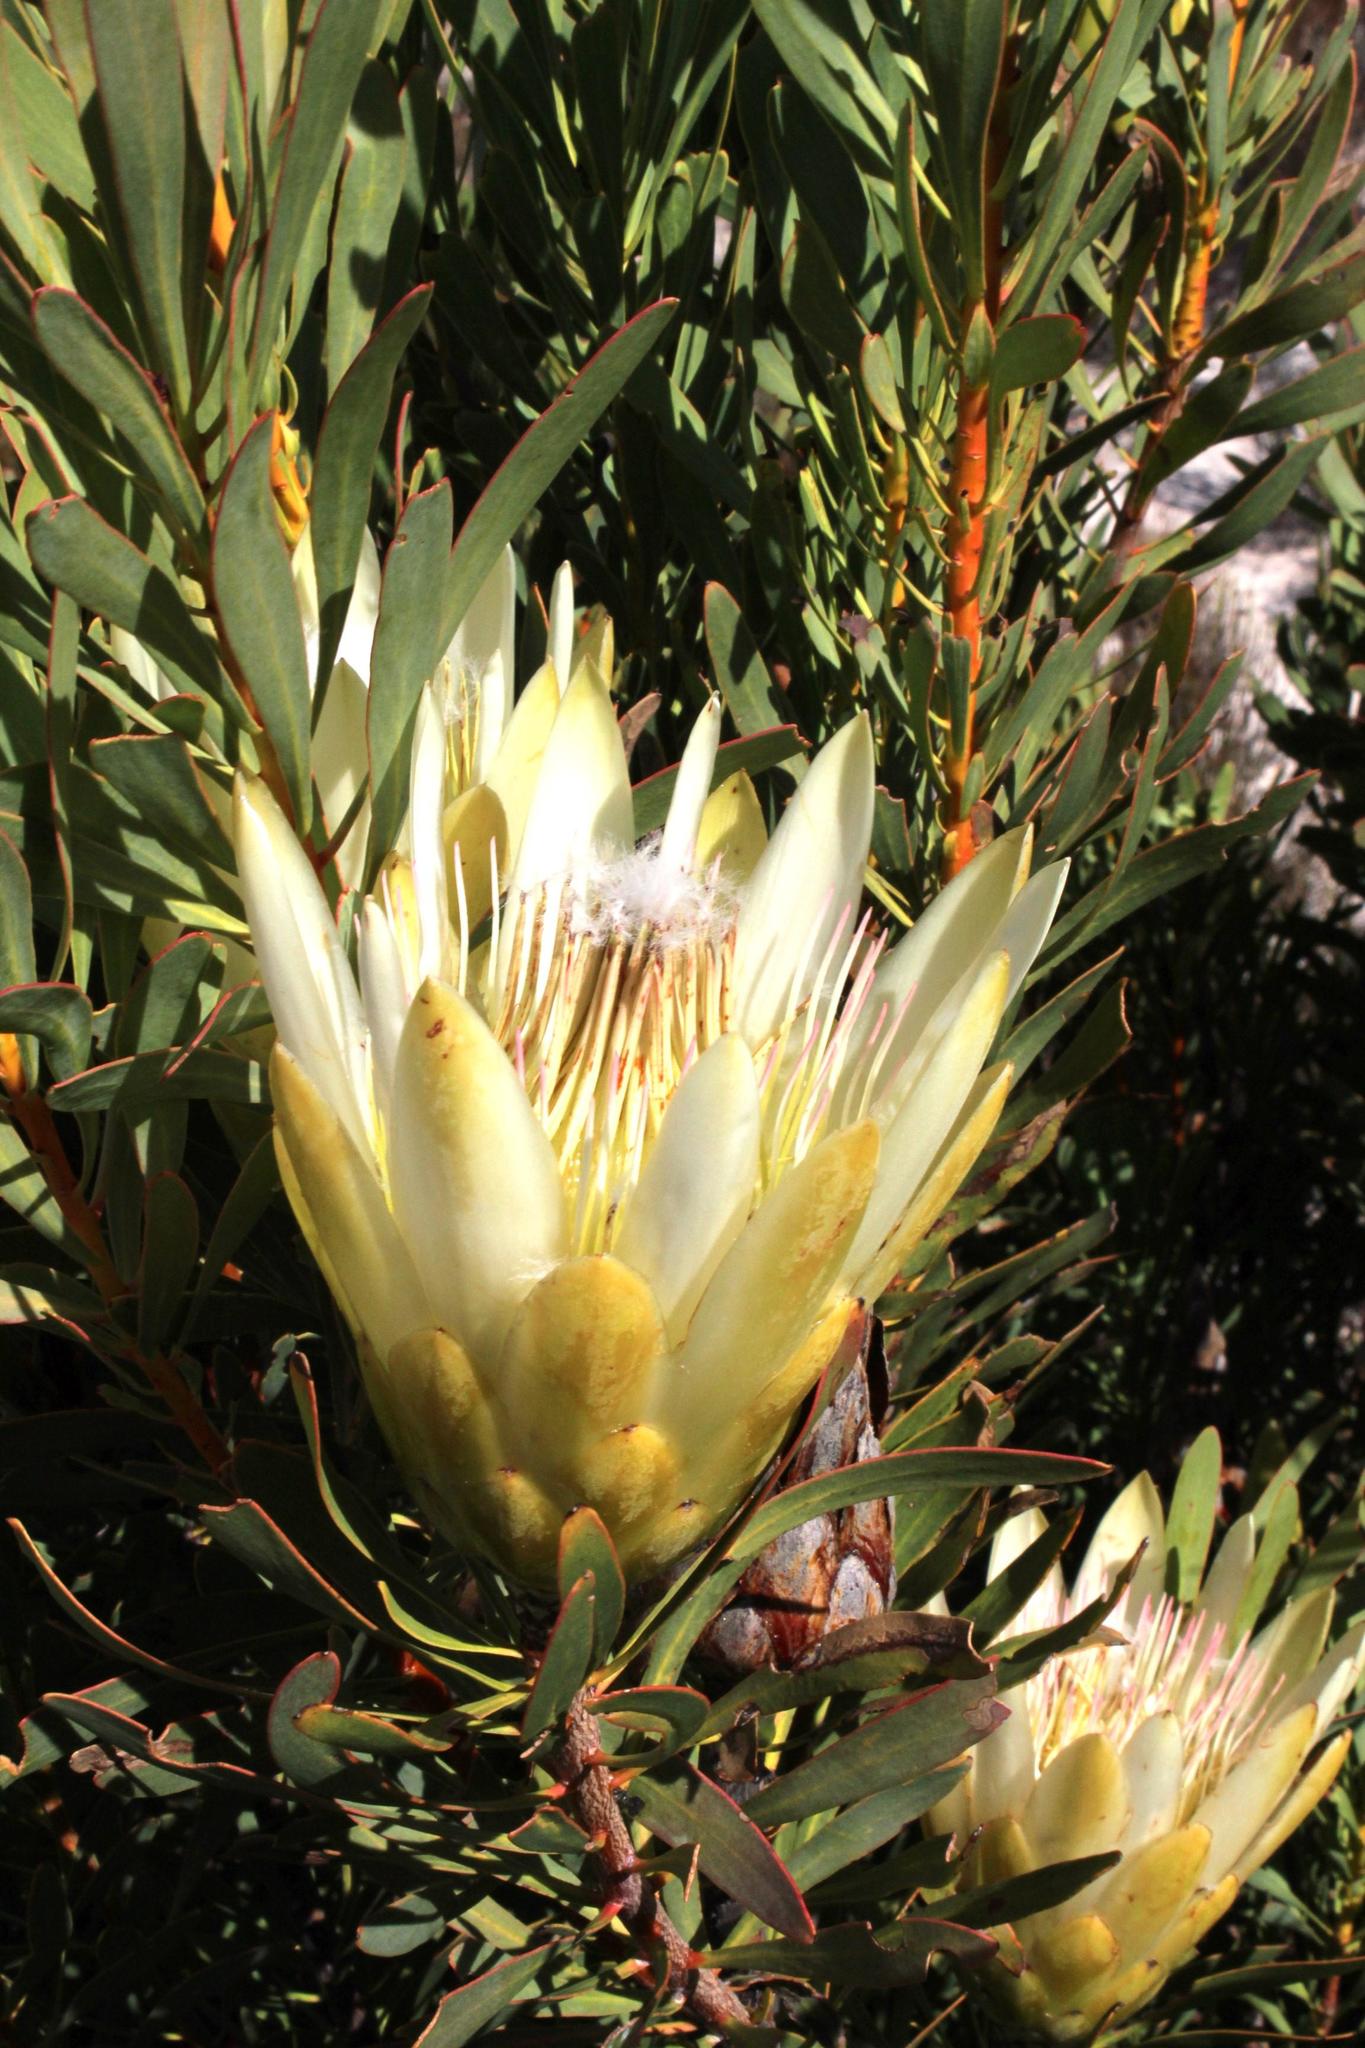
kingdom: Plantae
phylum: Tracheophyta
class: Magnoliopsida
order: Proteales
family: Proteaceae
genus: Protea
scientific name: Protea repens
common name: Sugarbush
